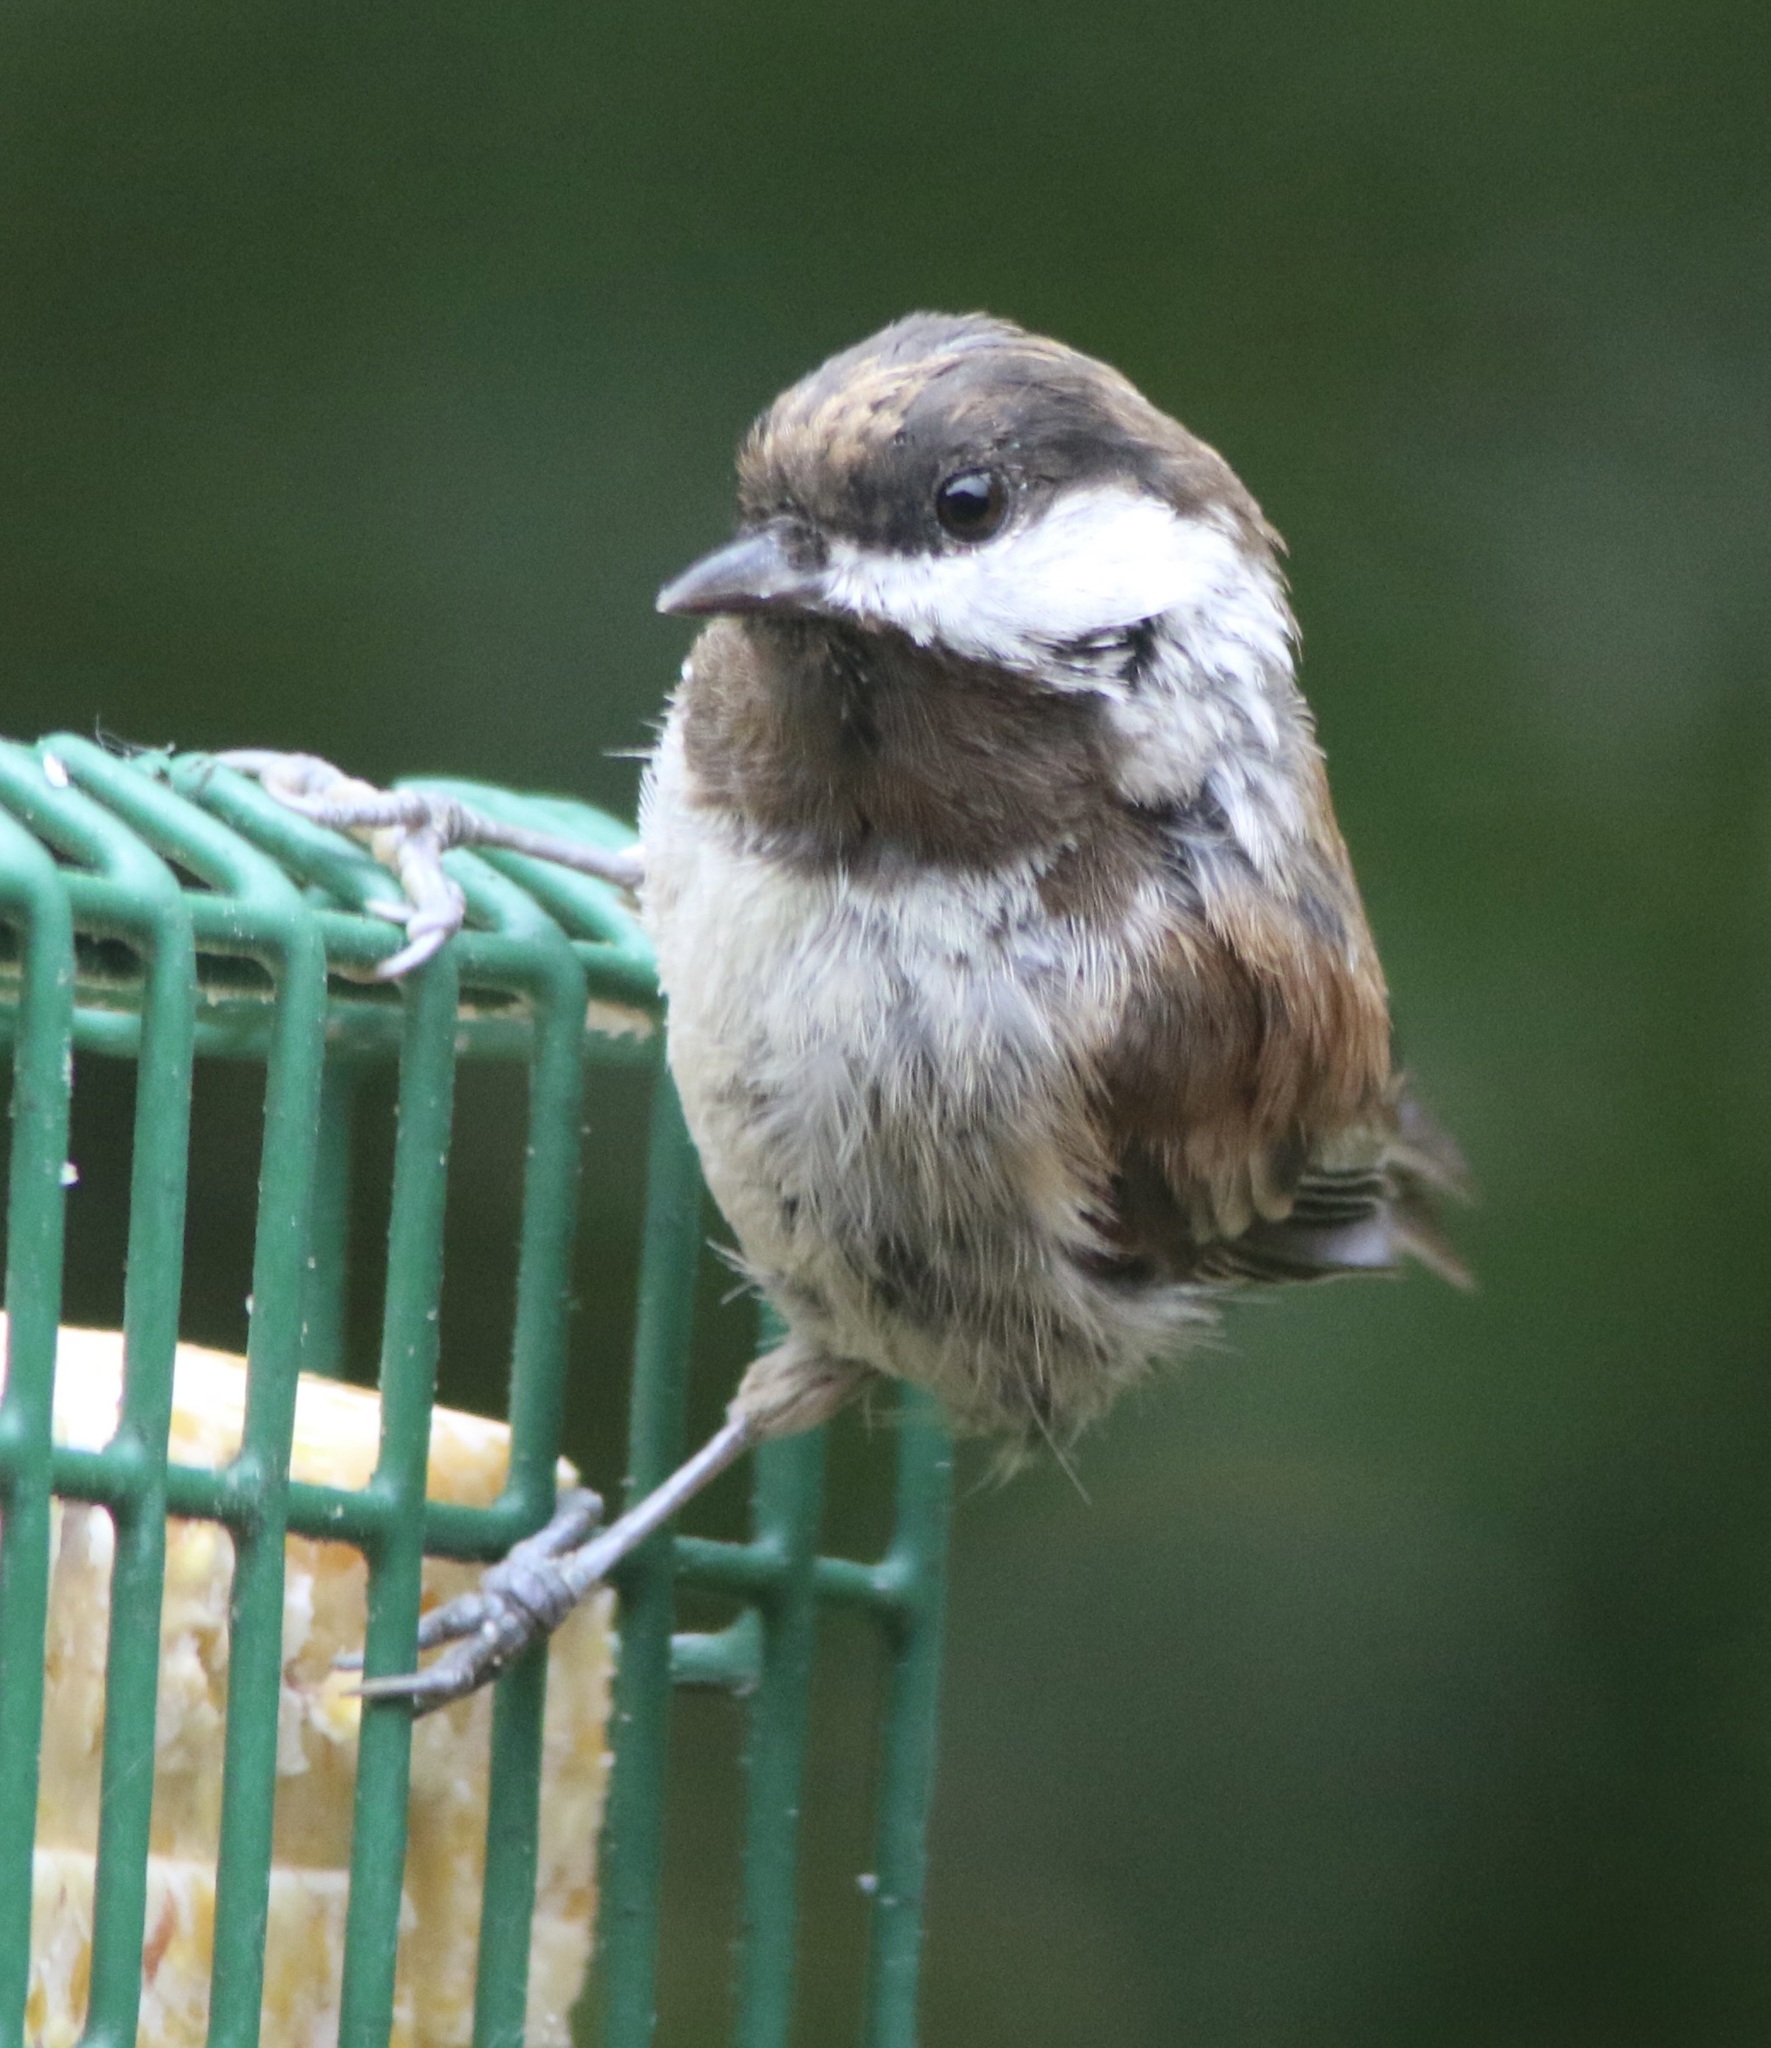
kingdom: Animalia
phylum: Chordata
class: Aves
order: Passeriformes
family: Paridae
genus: Poecile
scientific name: Poecile rufescens
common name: Chestnut-backed chickadee
